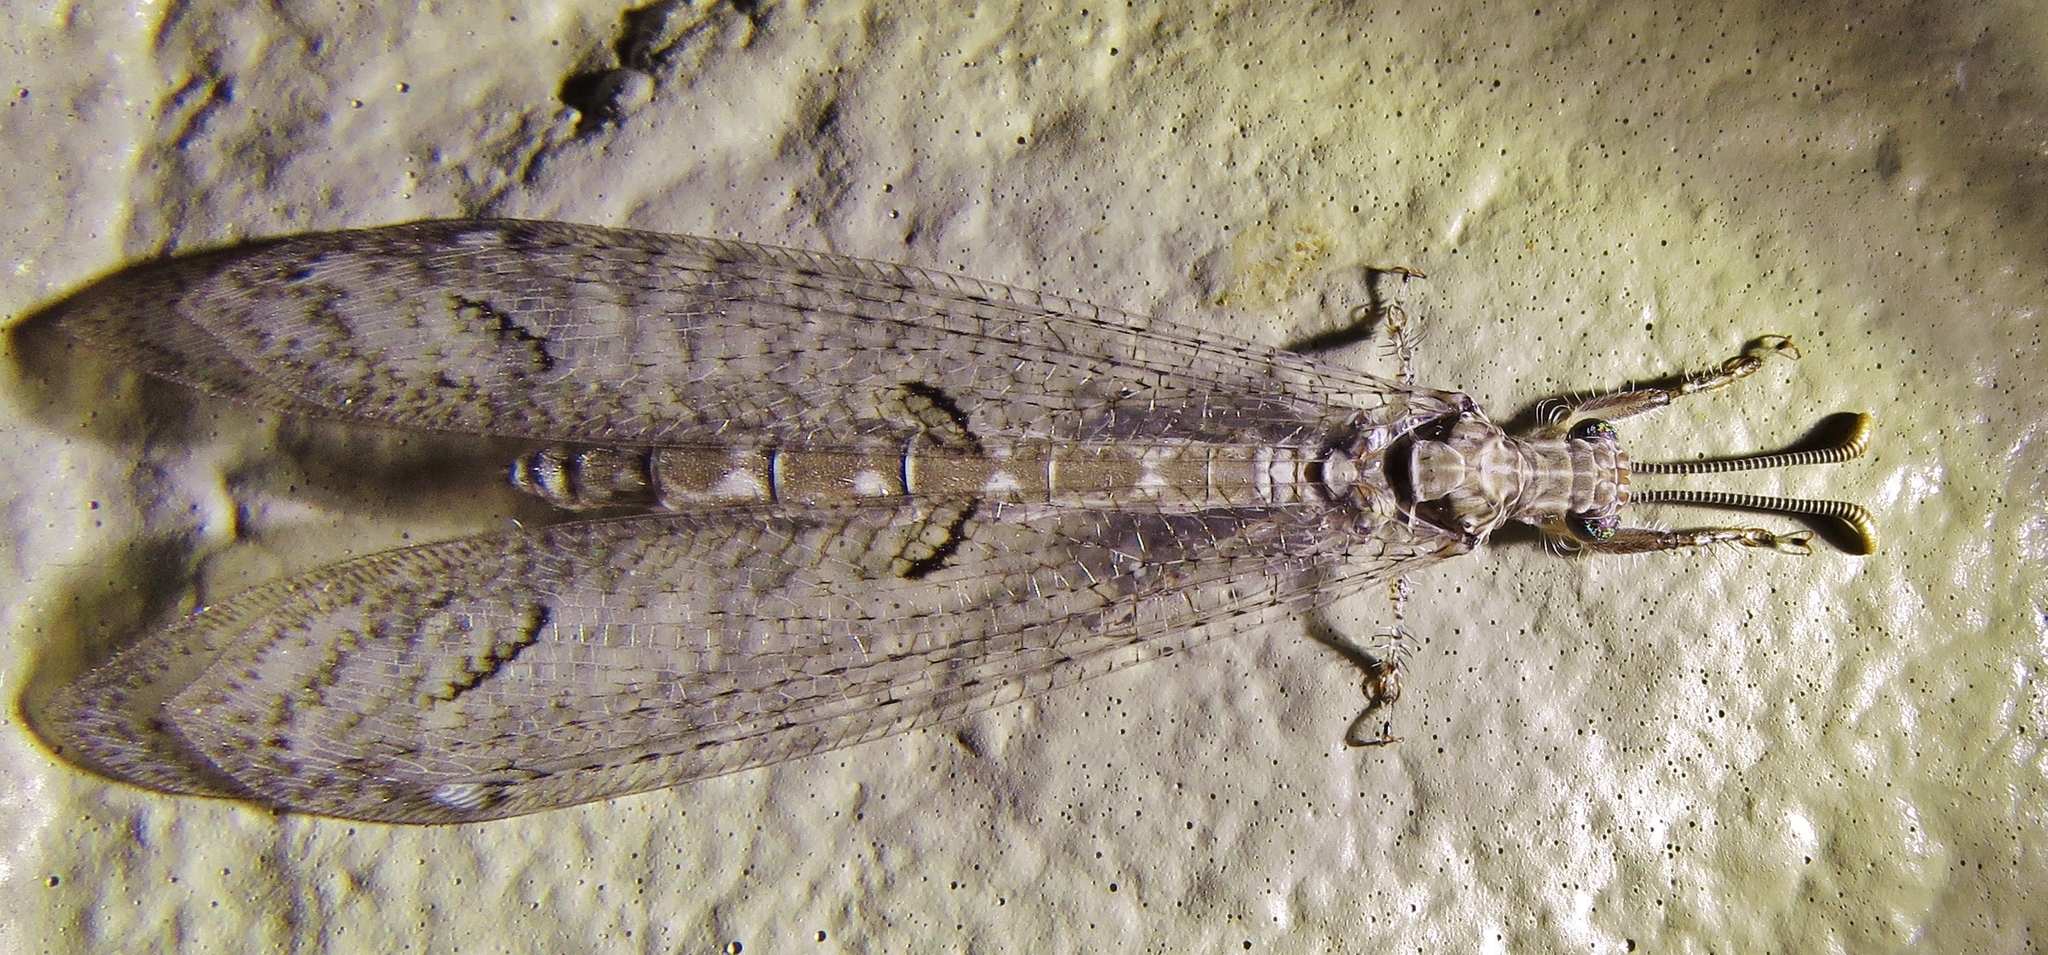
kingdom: Animalia
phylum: Arthropoda
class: Insecta
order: Neuroptera
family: Myrmeleontidae
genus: Euptilon
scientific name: Euptilon ornatum
